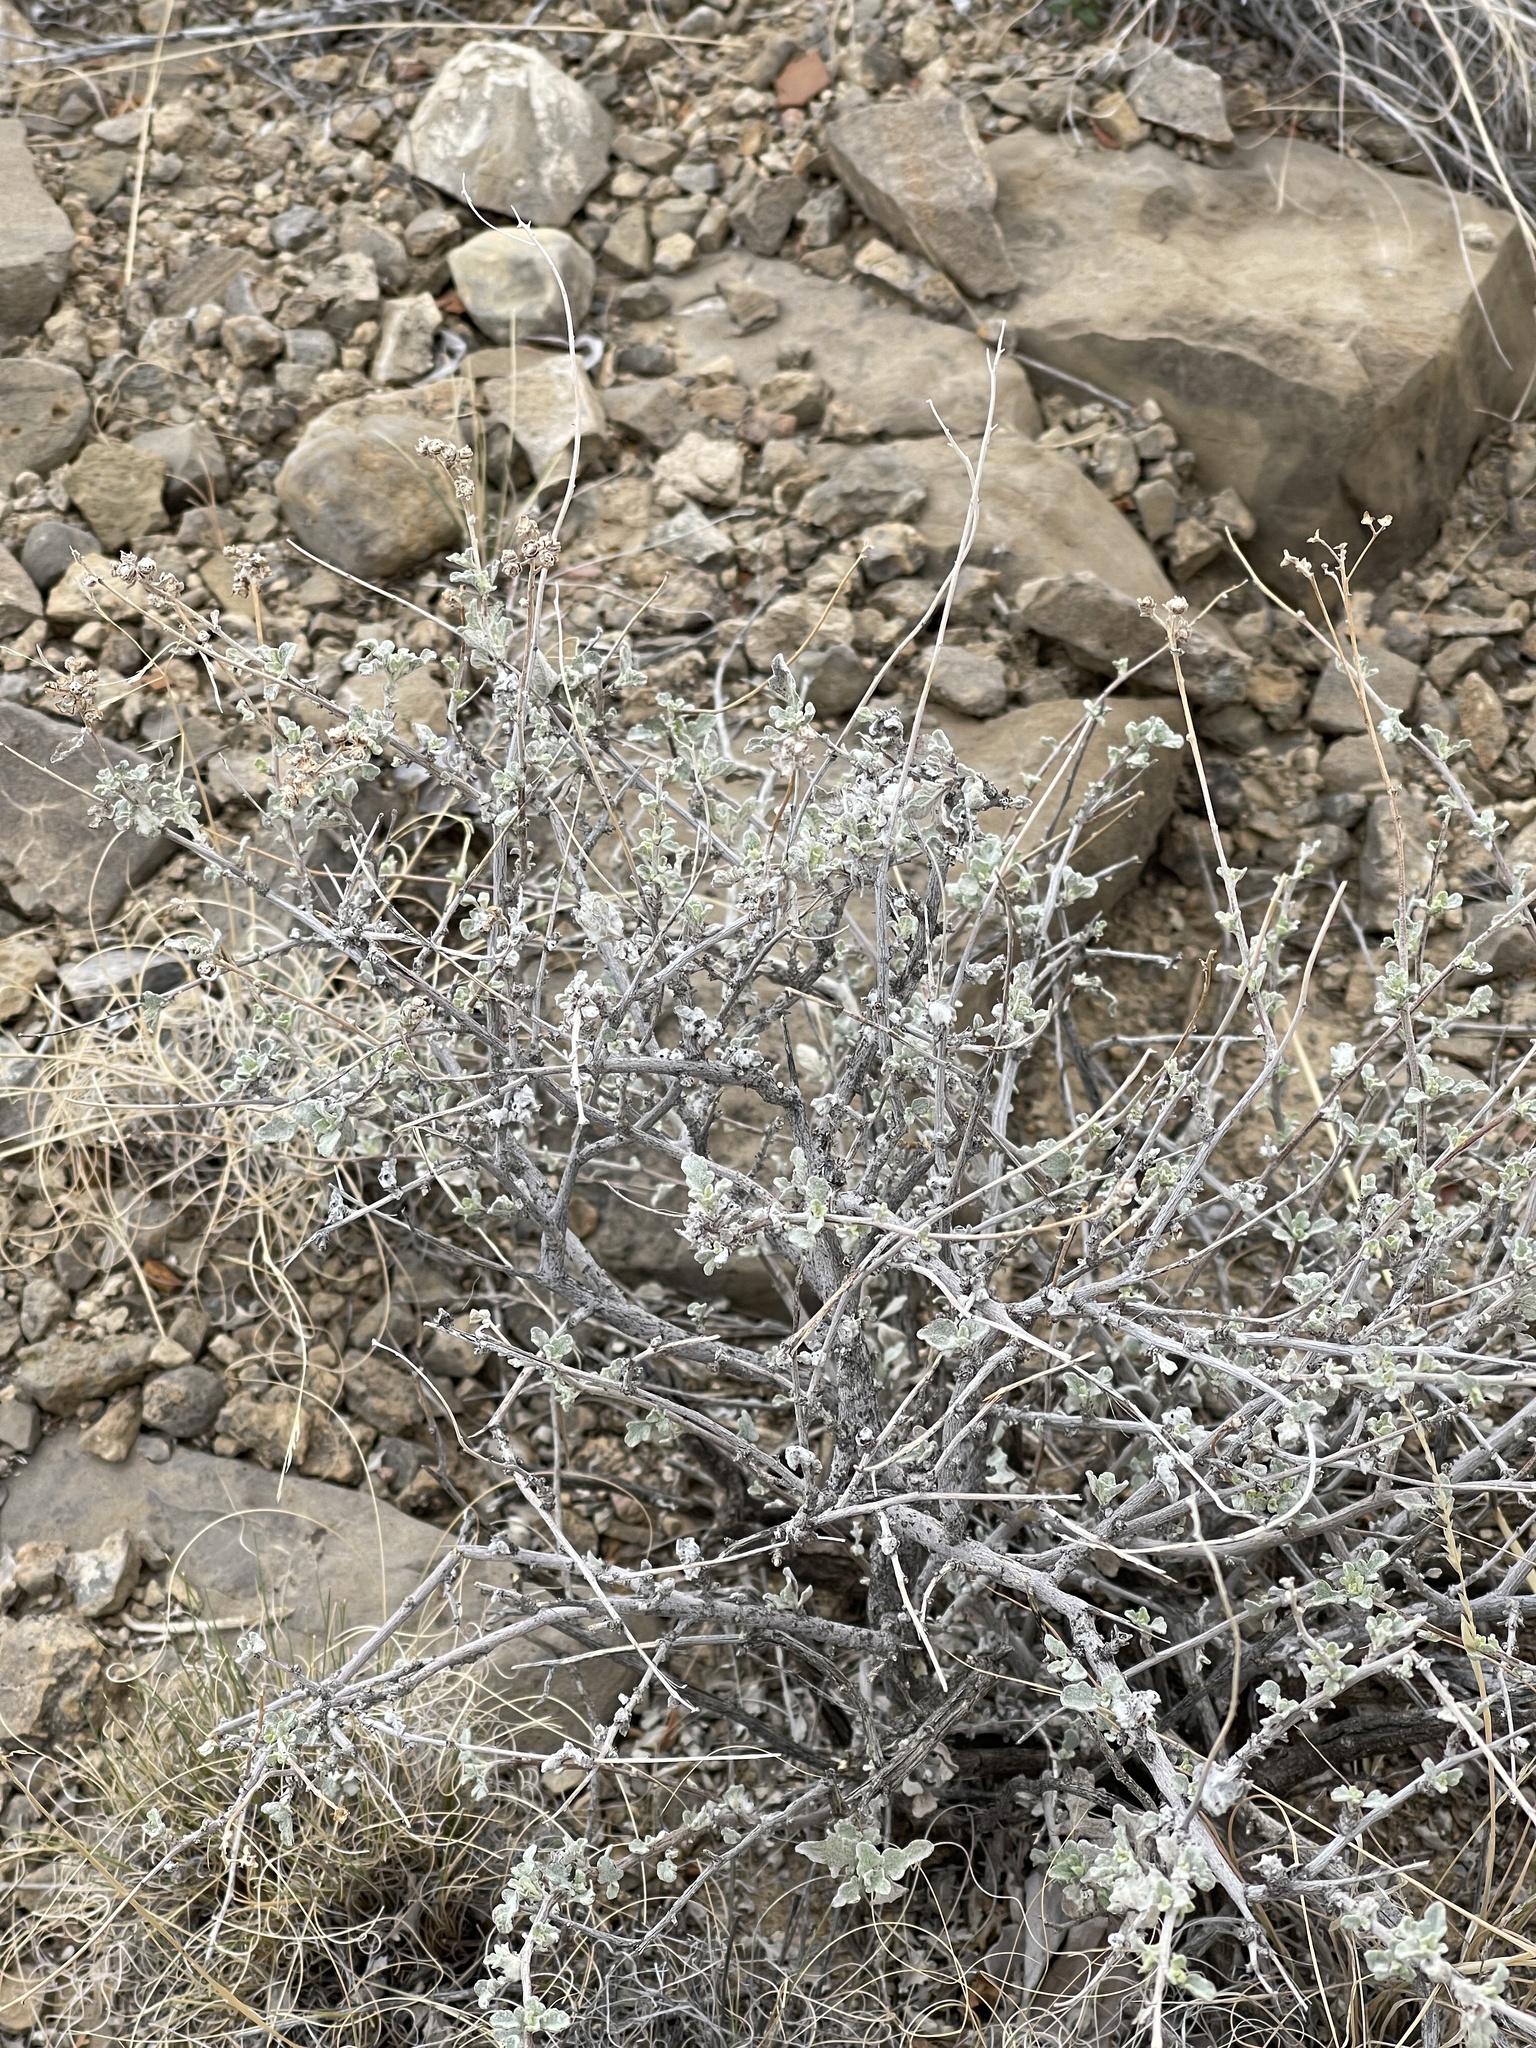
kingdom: Plantae
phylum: Tracheophyta
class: Magnoliopsida
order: Asterales
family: Asteraceae
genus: Parthenium
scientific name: Parthenium incanum
